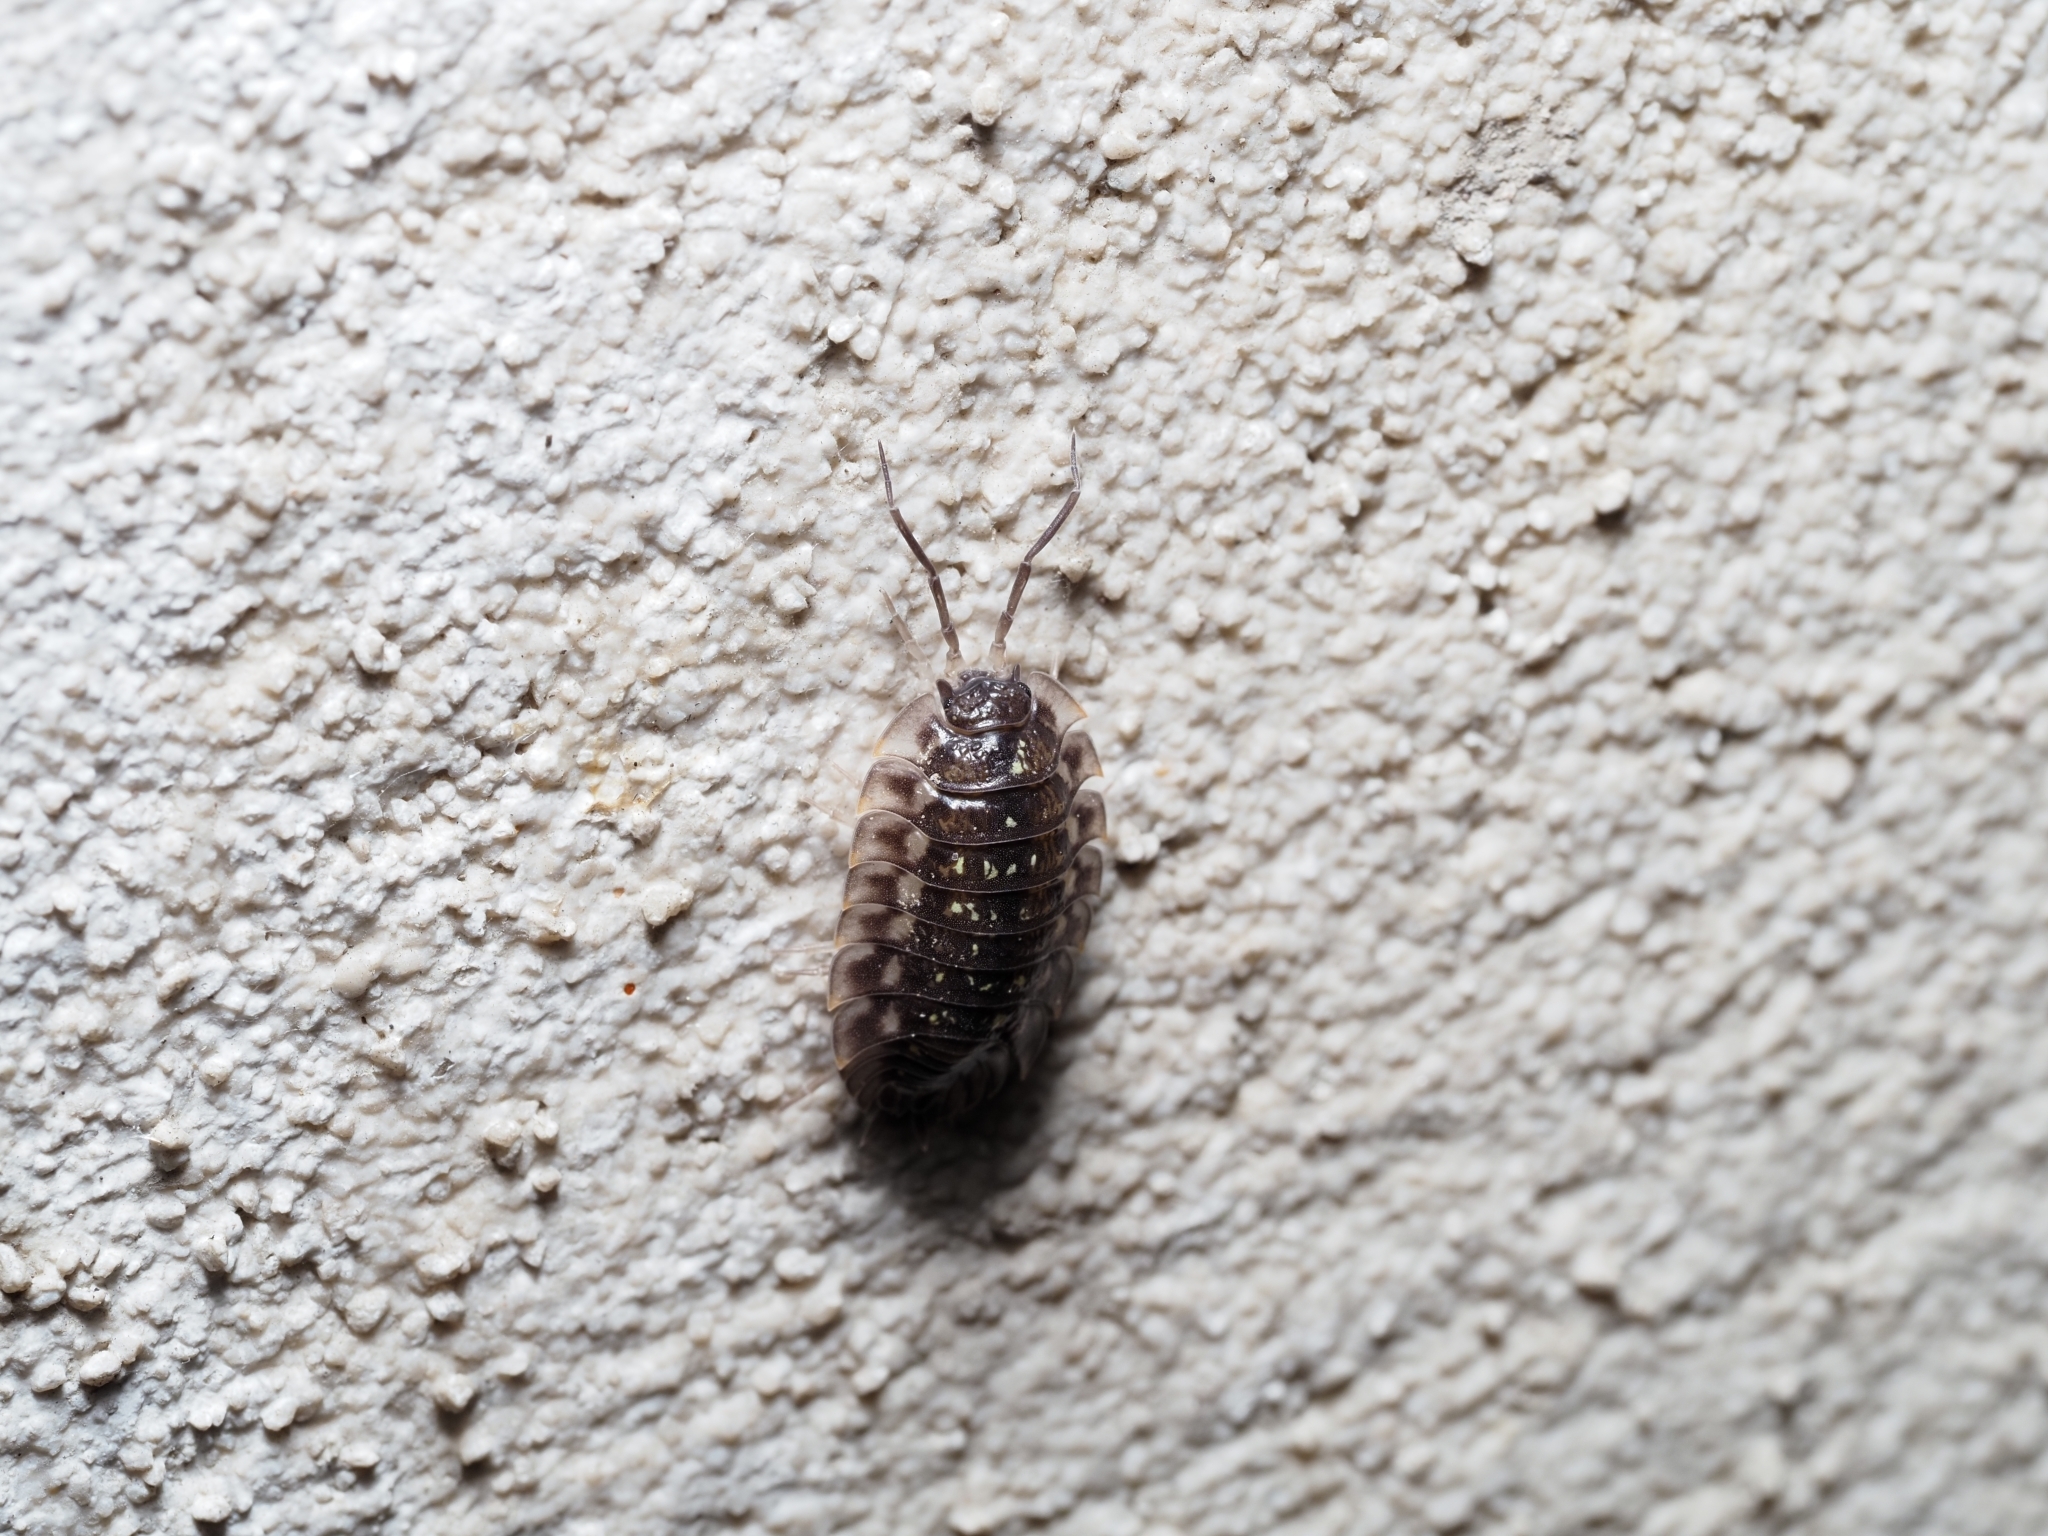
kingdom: Animalia
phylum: Arthropoda
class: Malacostraca
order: Isopoda
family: Oniscidae
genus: Oniscus
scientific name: Oniscus asellus
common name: Common shiny woodlouse
